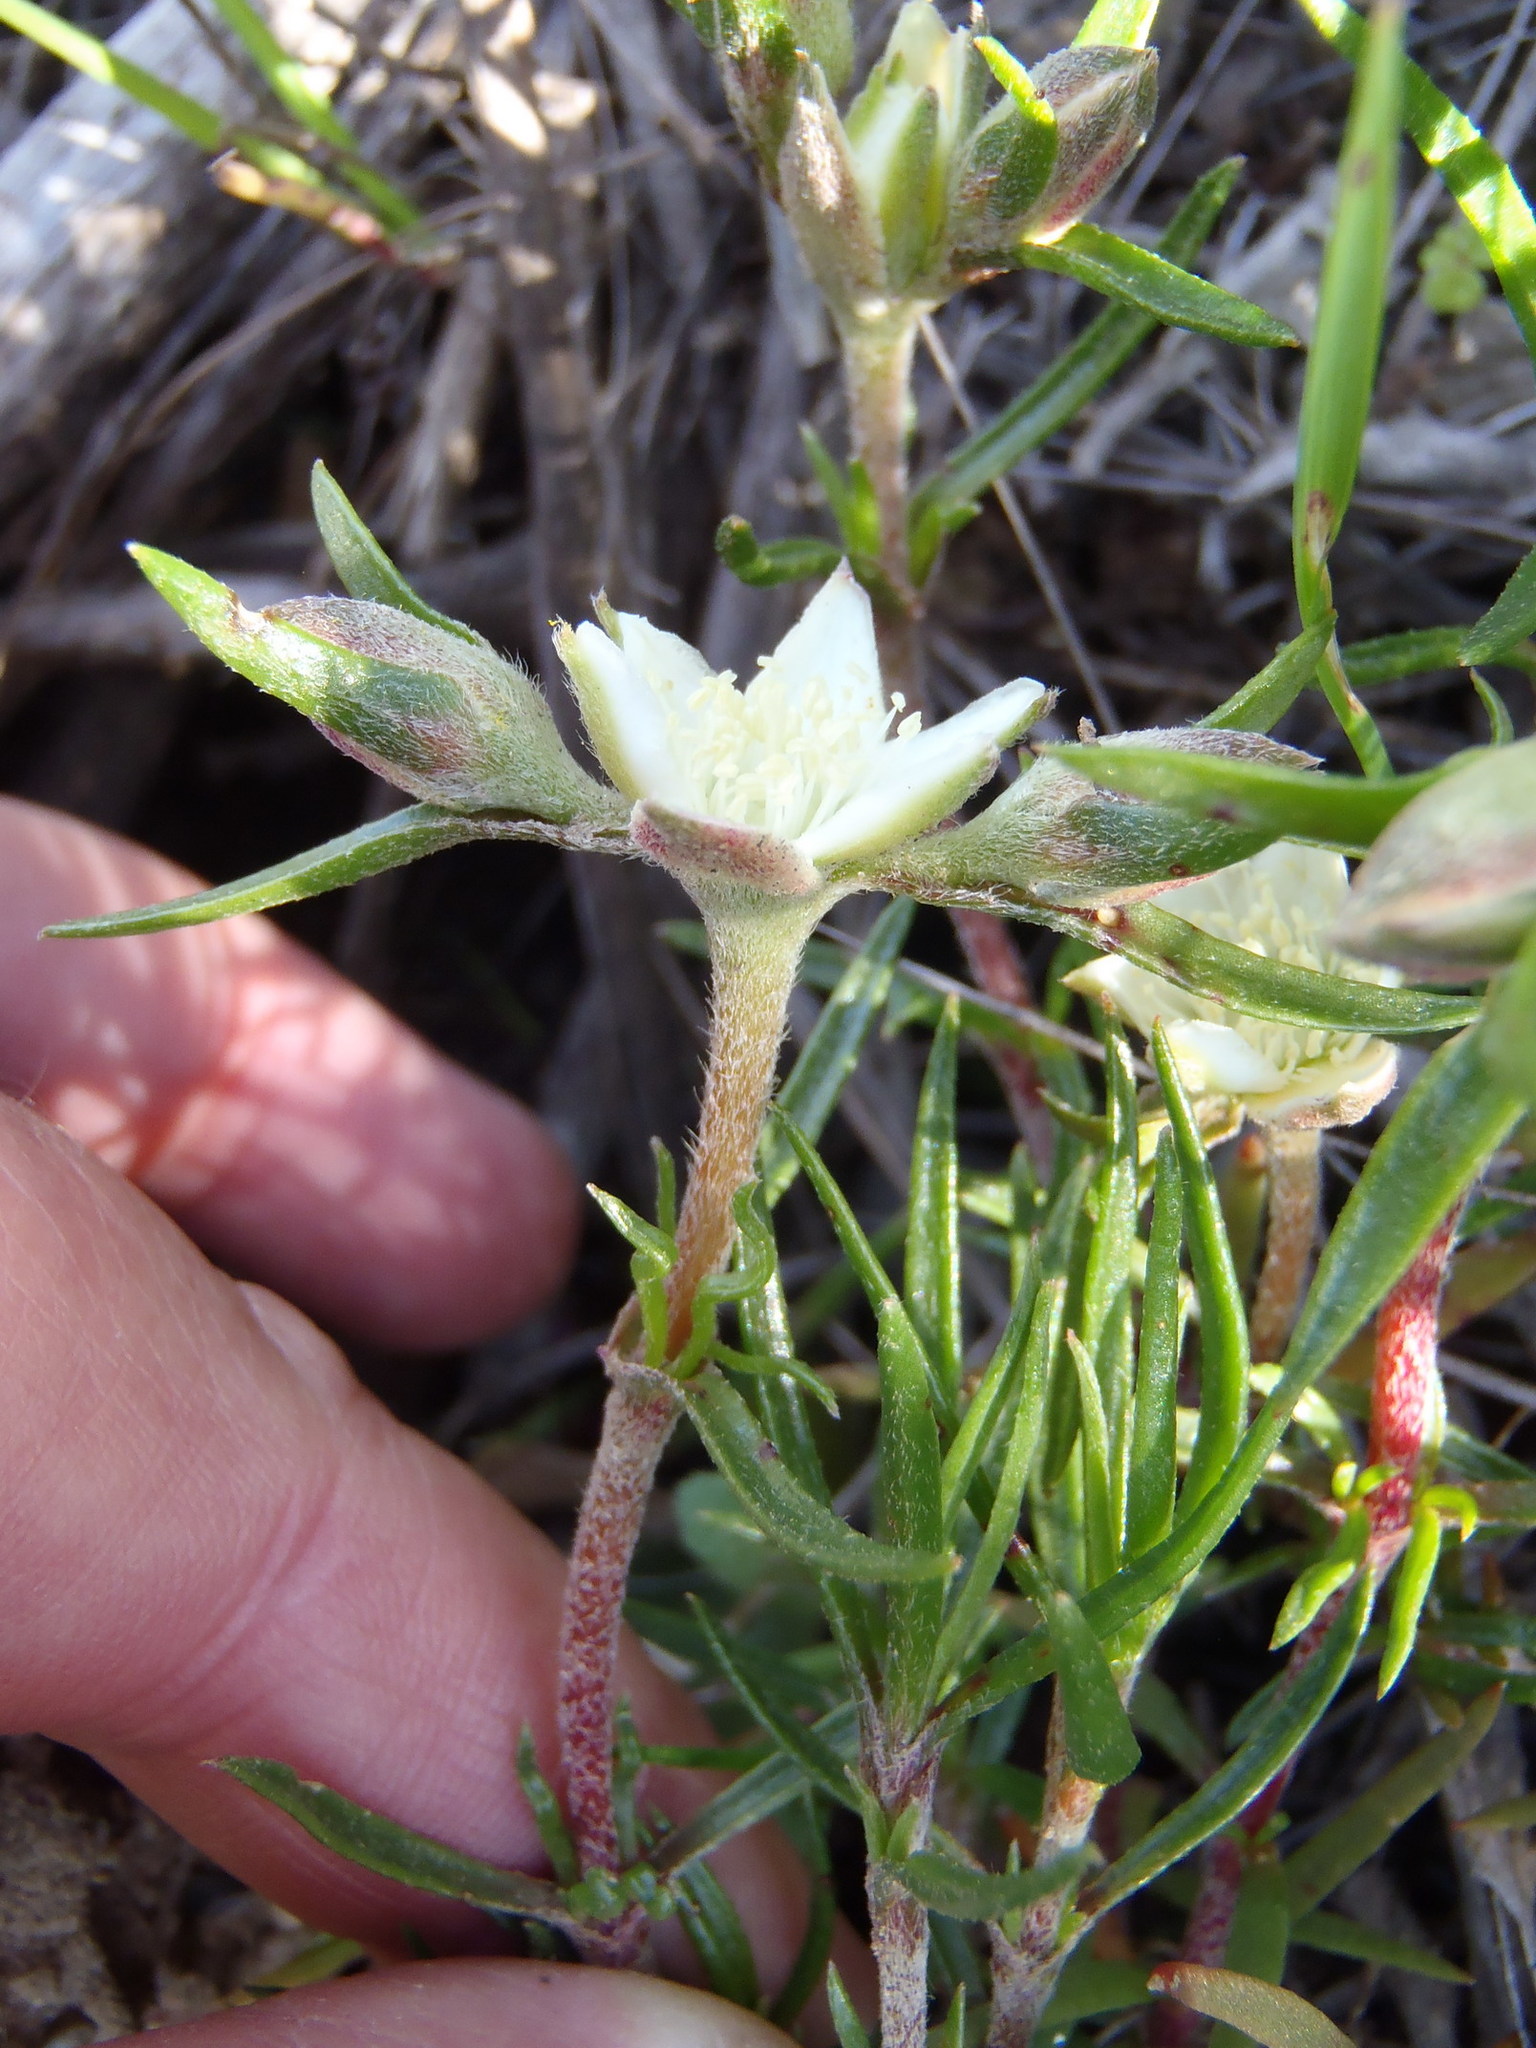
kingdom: Plantae
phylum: Tracheophyta
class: Magnoliopsida
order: Caryophyllales
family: Aizoaceae
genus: Aizoon
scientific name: Aizoon sarmentosum
